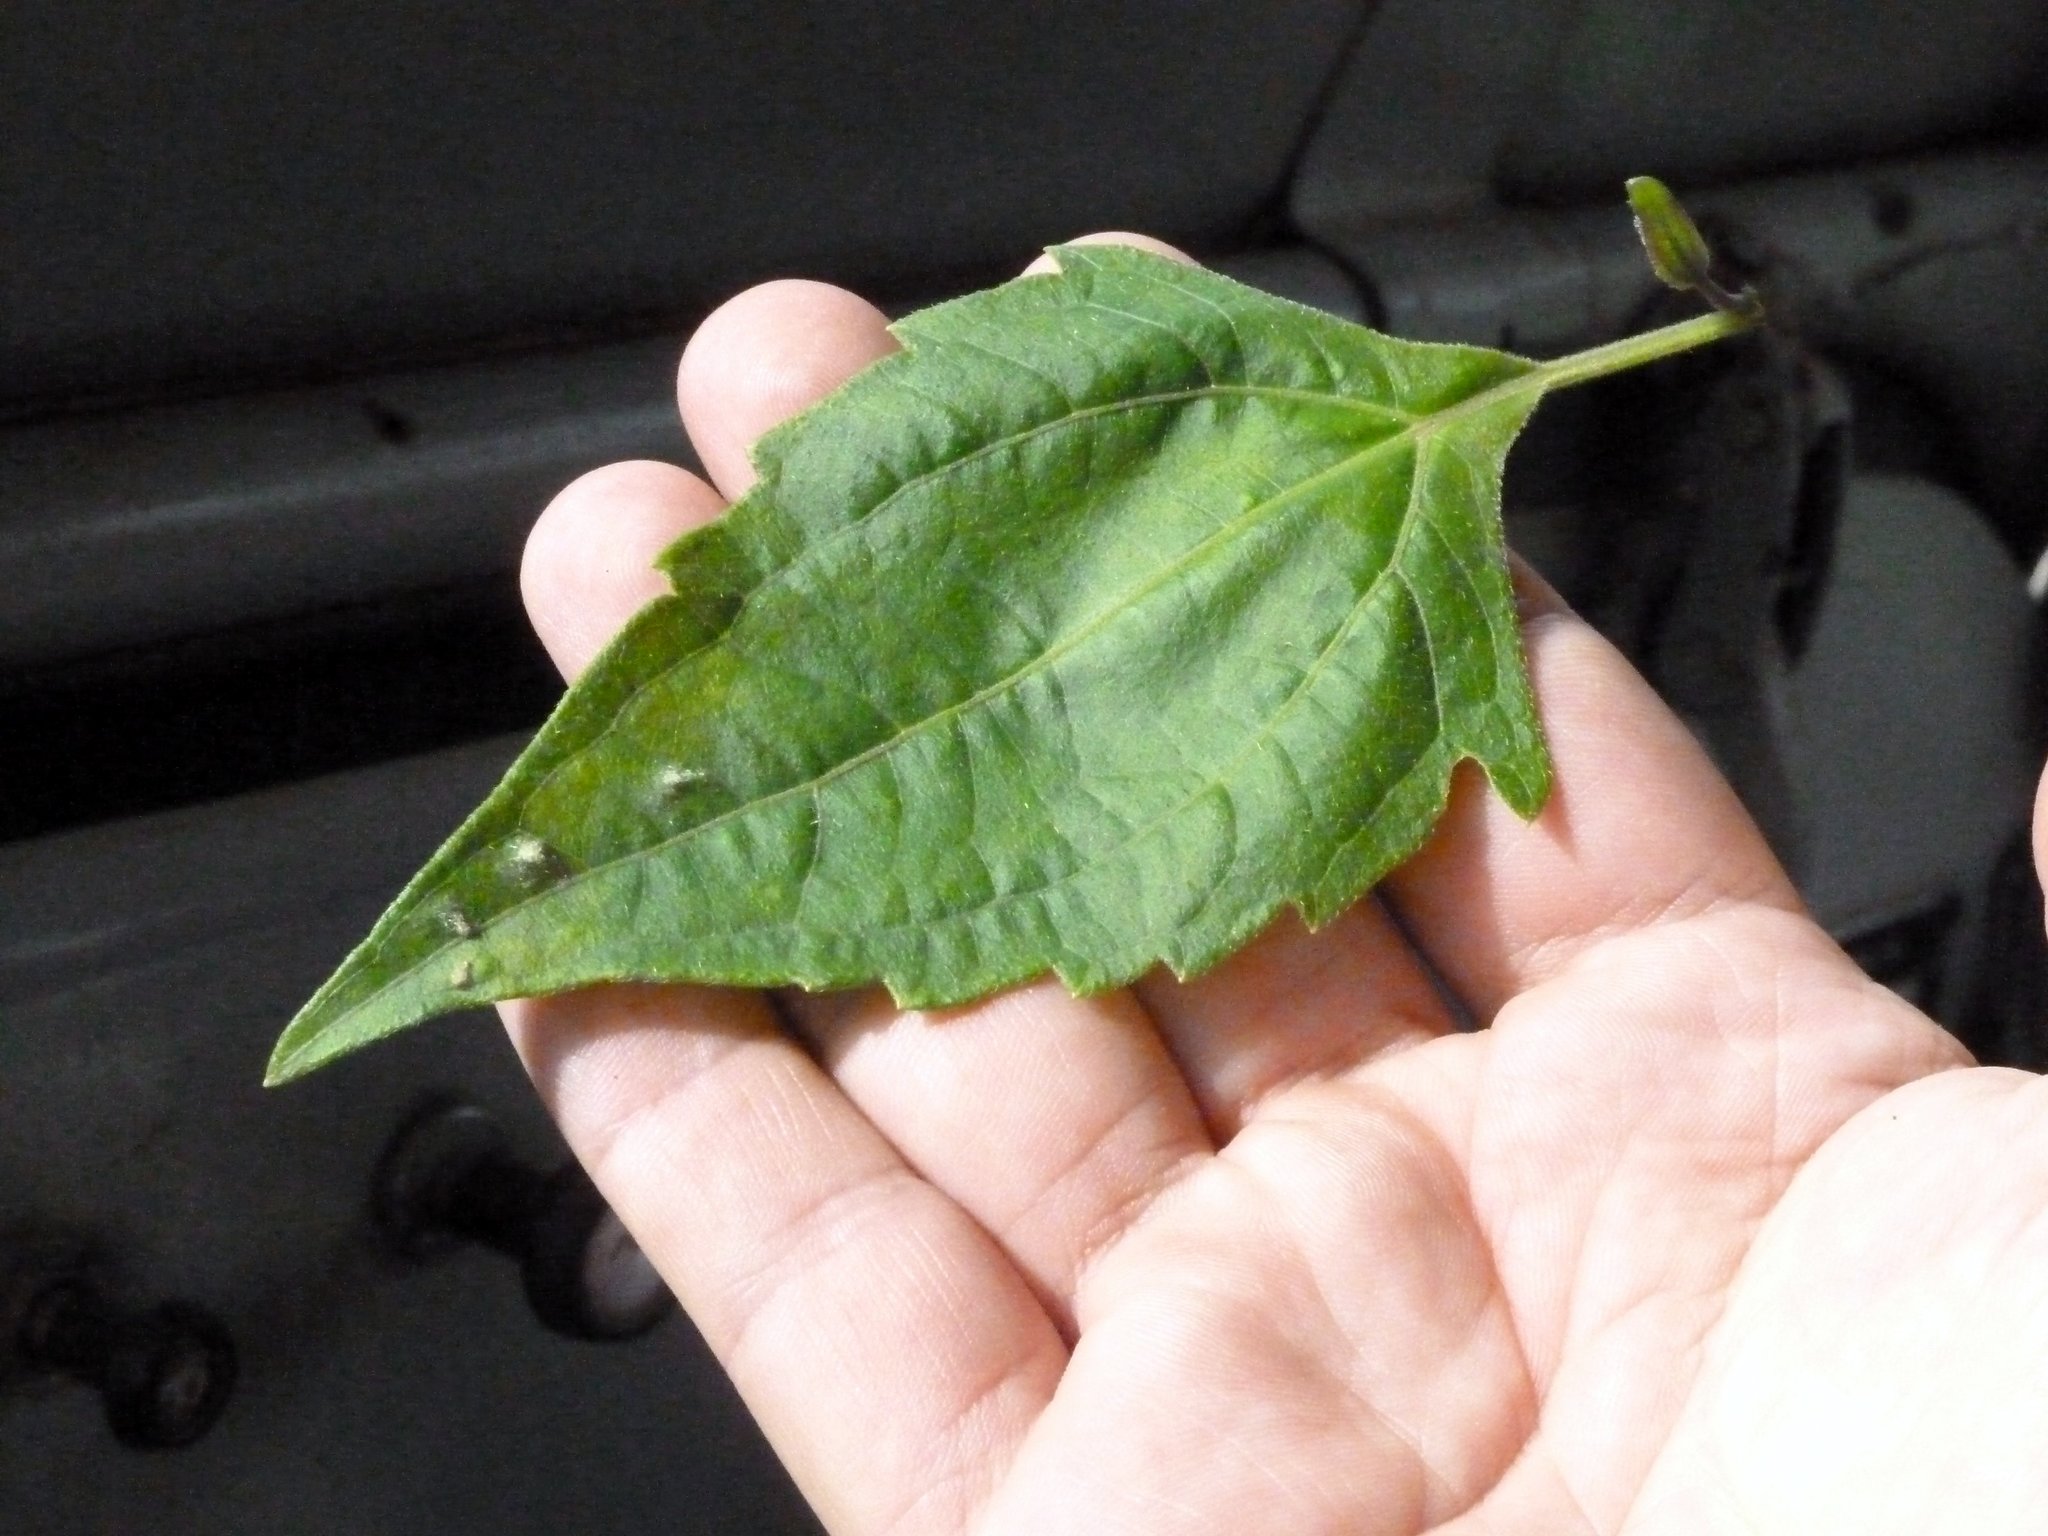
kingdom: Plantae
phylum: Tracheophyta
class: Magnoliopsida
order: Asterales
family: Asteraceae
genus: Chromolaena
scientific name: Chromolaena odorata
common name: Siamweed
